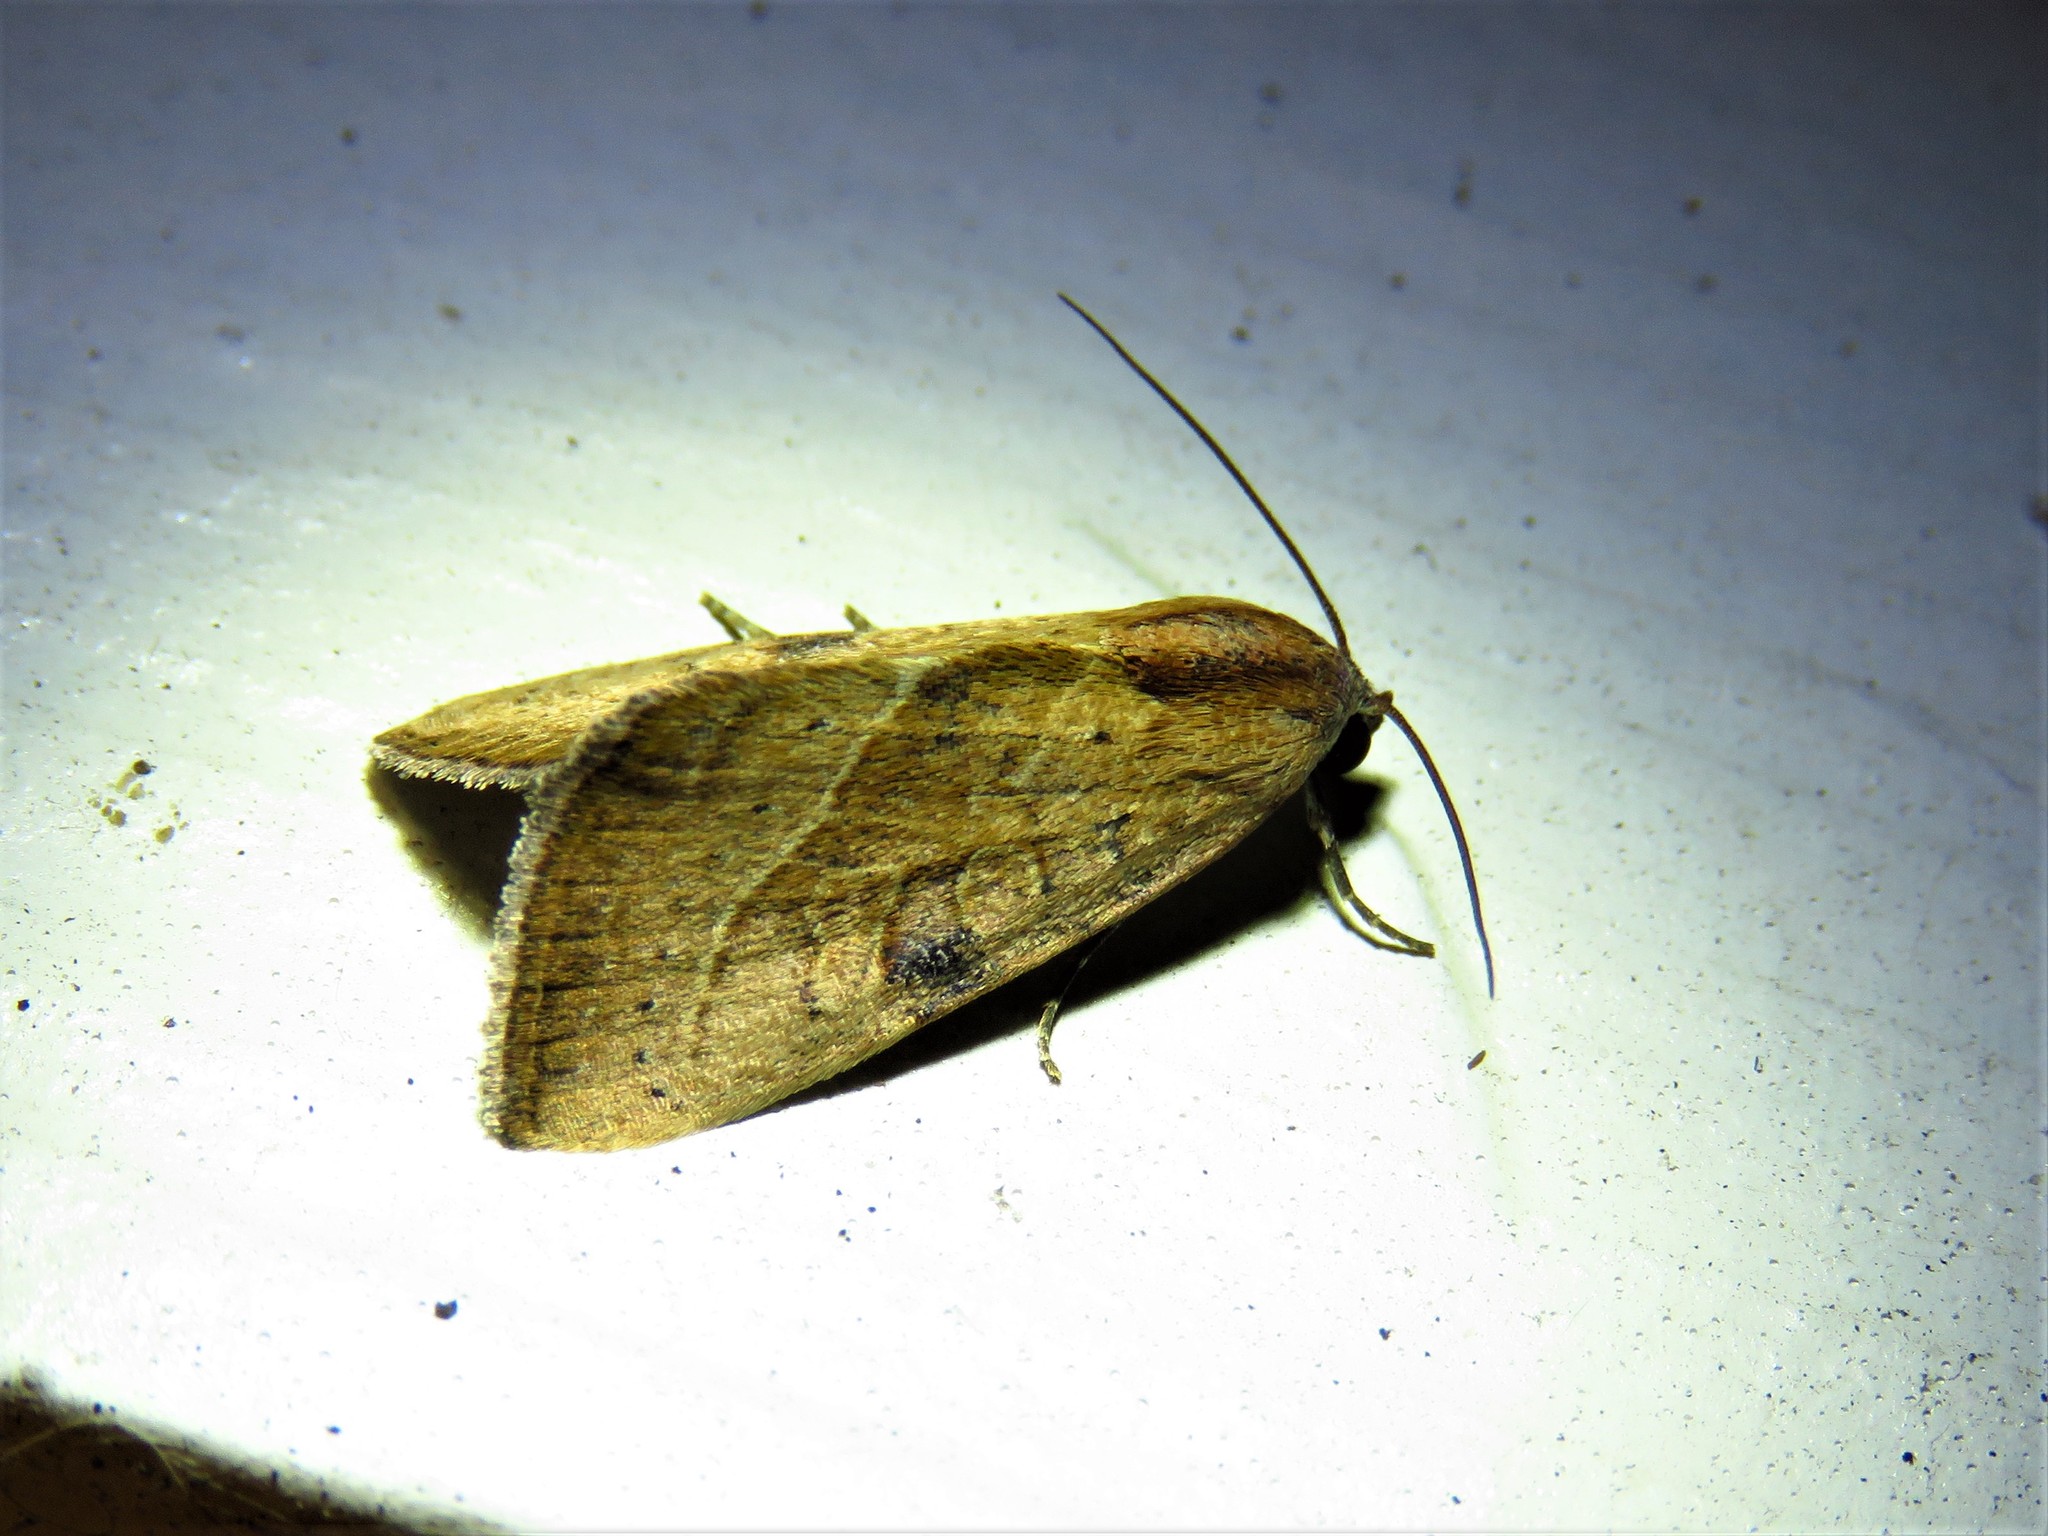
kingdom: Animalia
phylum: Arthropoda
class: Insecta
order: Lepidoptera
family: Noctuidae
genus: Galgula
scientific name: Galgula partita
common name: Wedgeling
